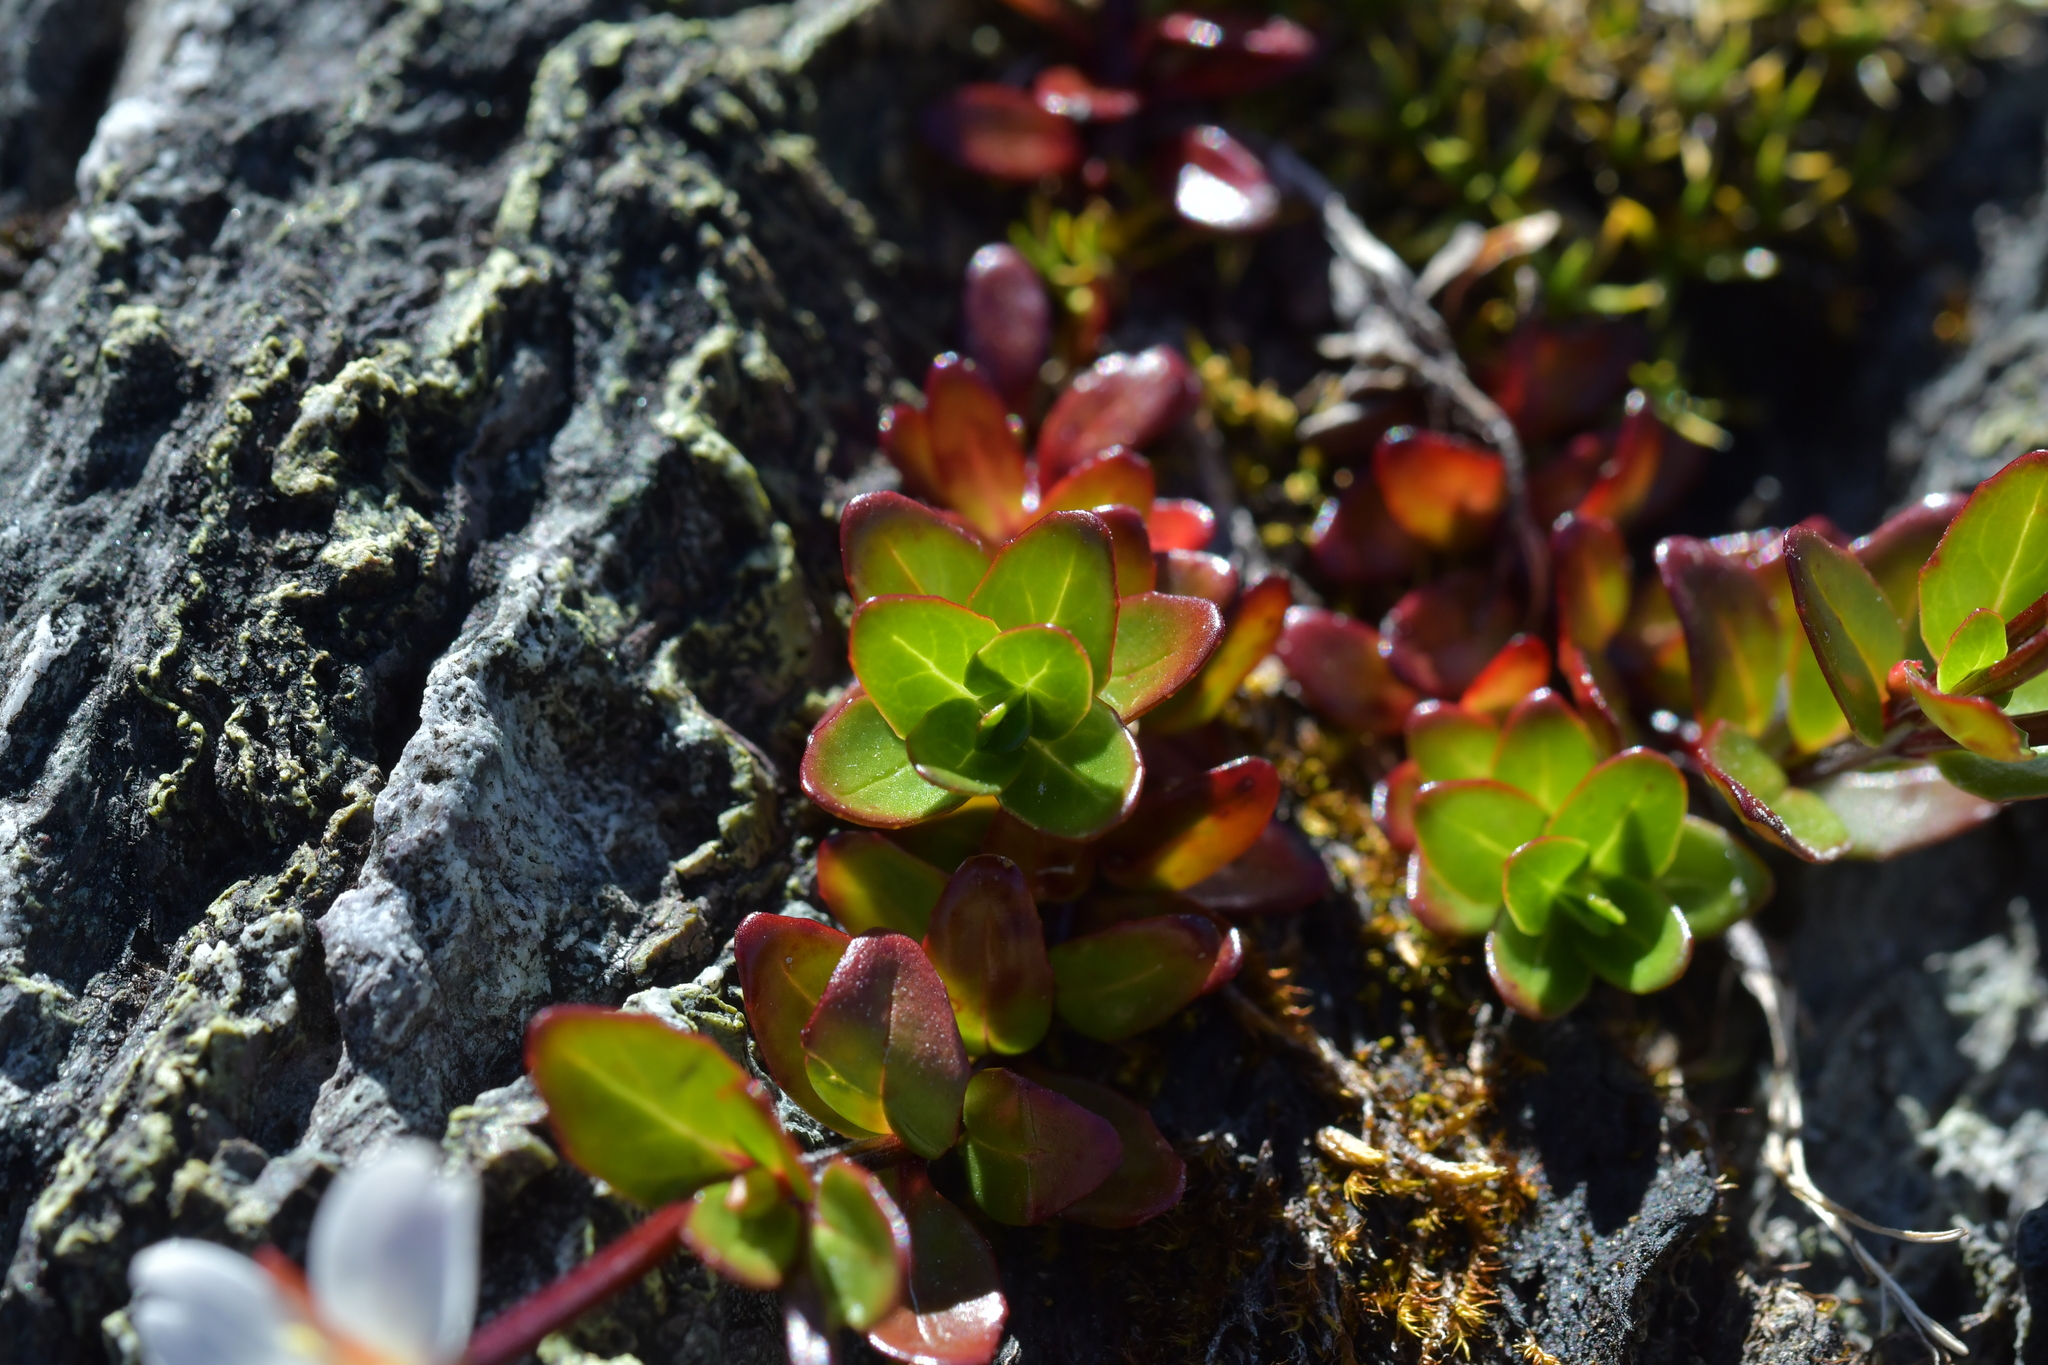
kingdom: Plantae
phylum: Tracheophyta
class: Magnoliopsida
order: Myrtales
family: Onagraceae
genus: Epilobium
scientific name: Epilobium glabellum
